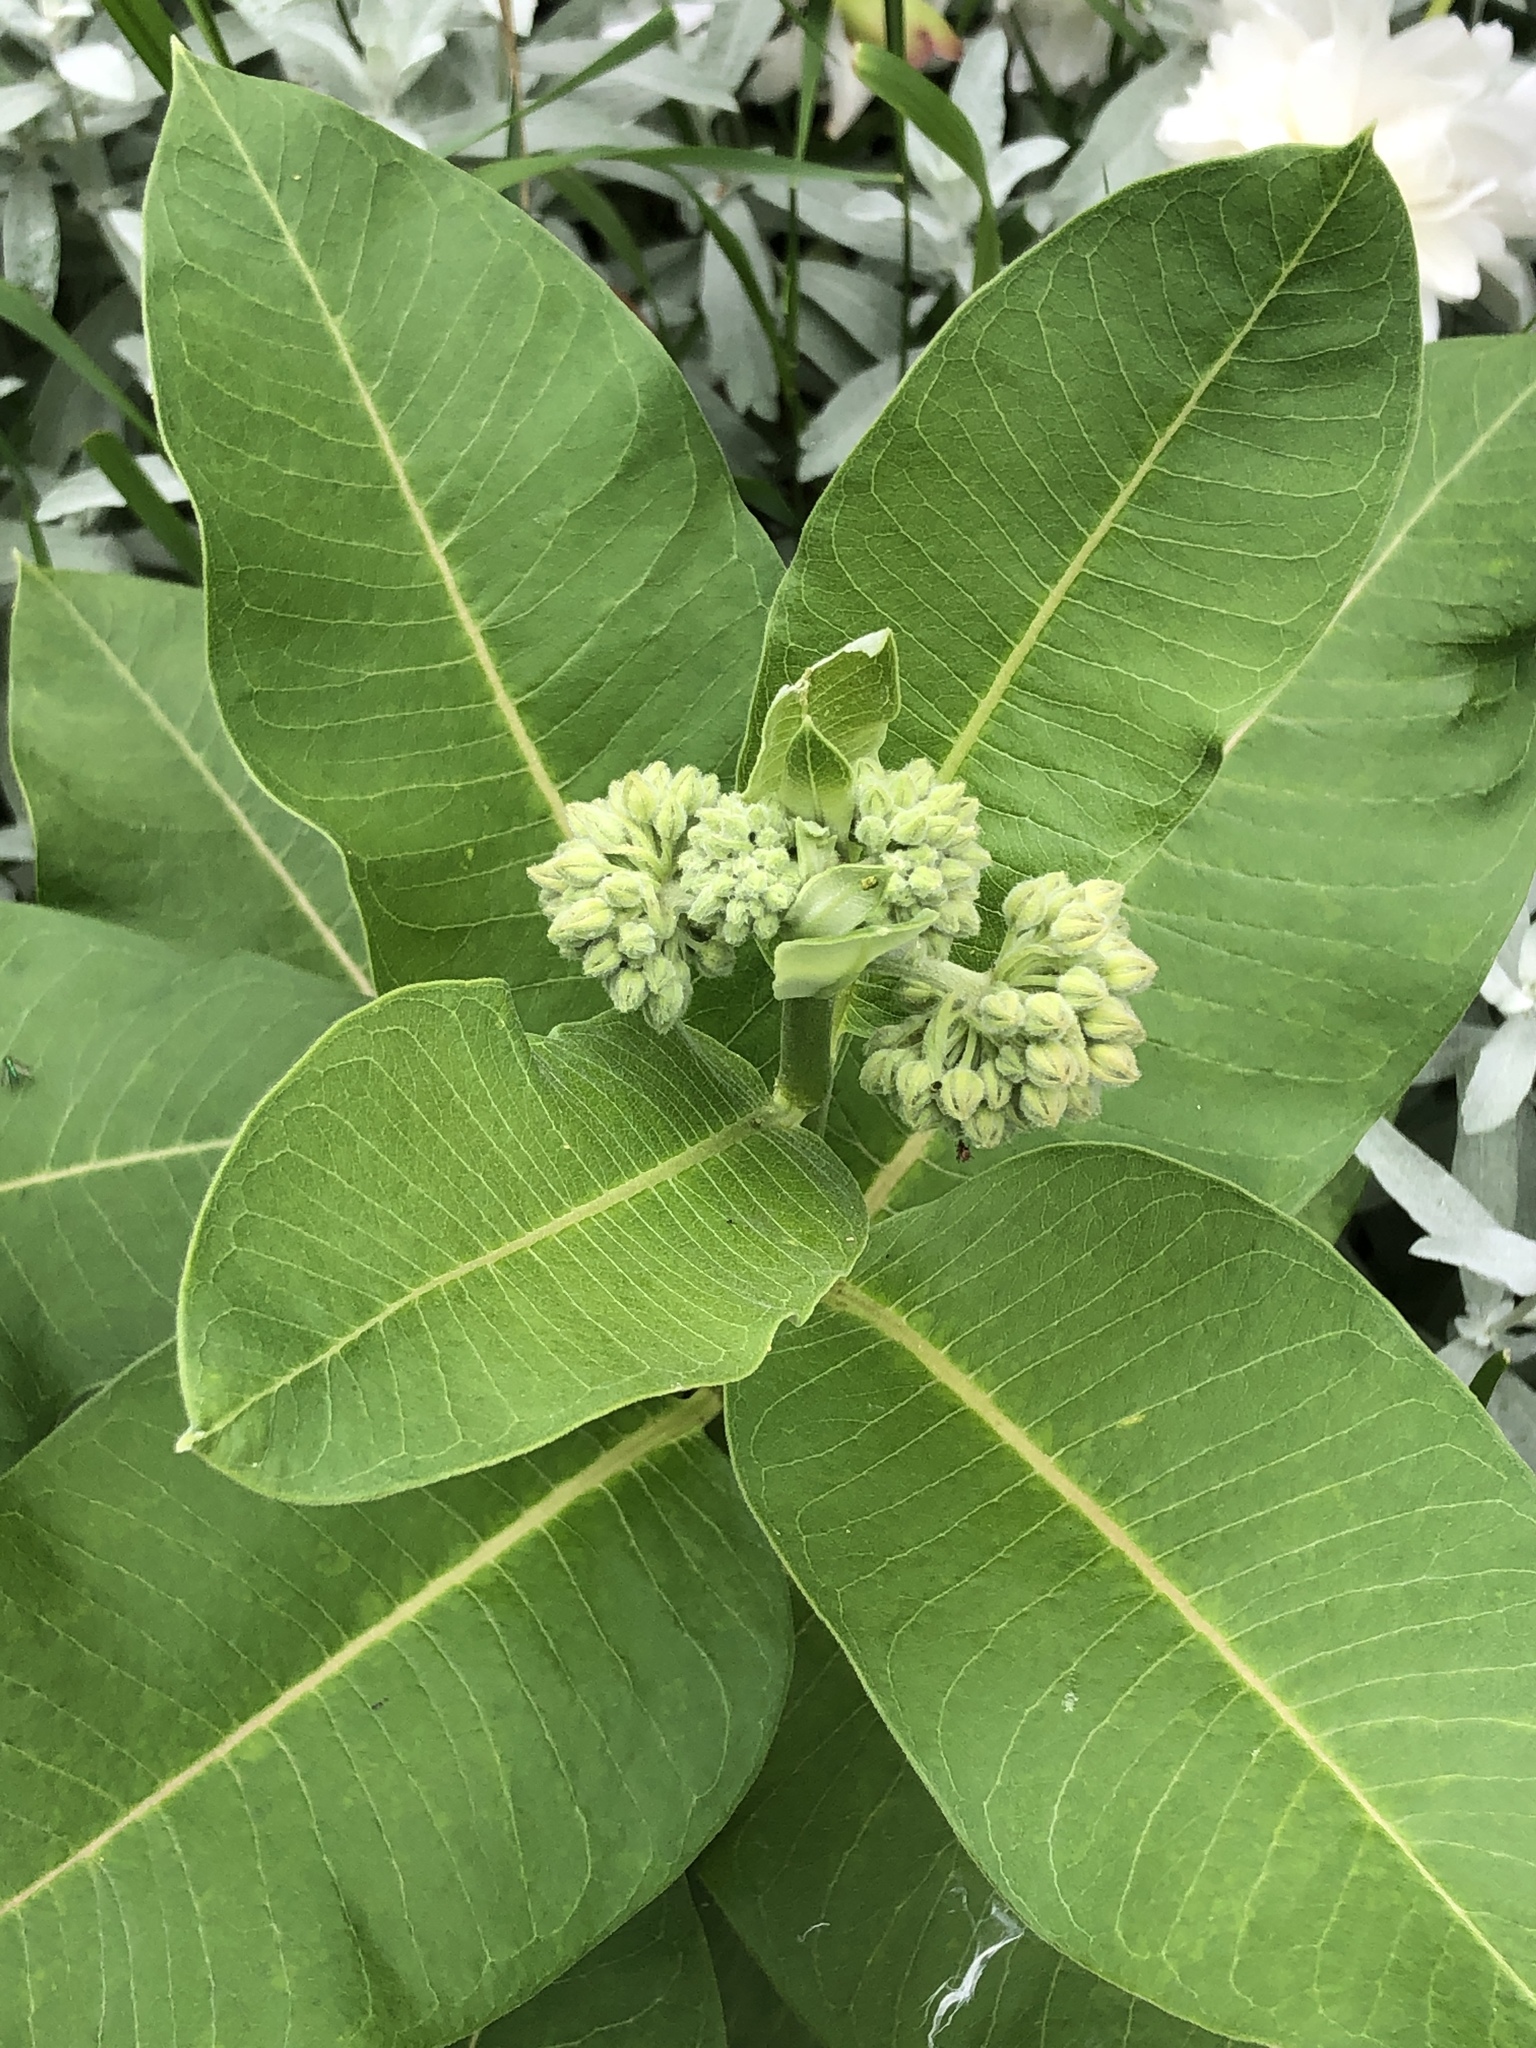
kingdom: Plantae
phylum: Tracheophyta
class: Magnoliopsida
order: Gentianales
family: Apocynaceae
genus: Asclepias
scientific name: Asclepias syriaca
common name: Common milkweed
